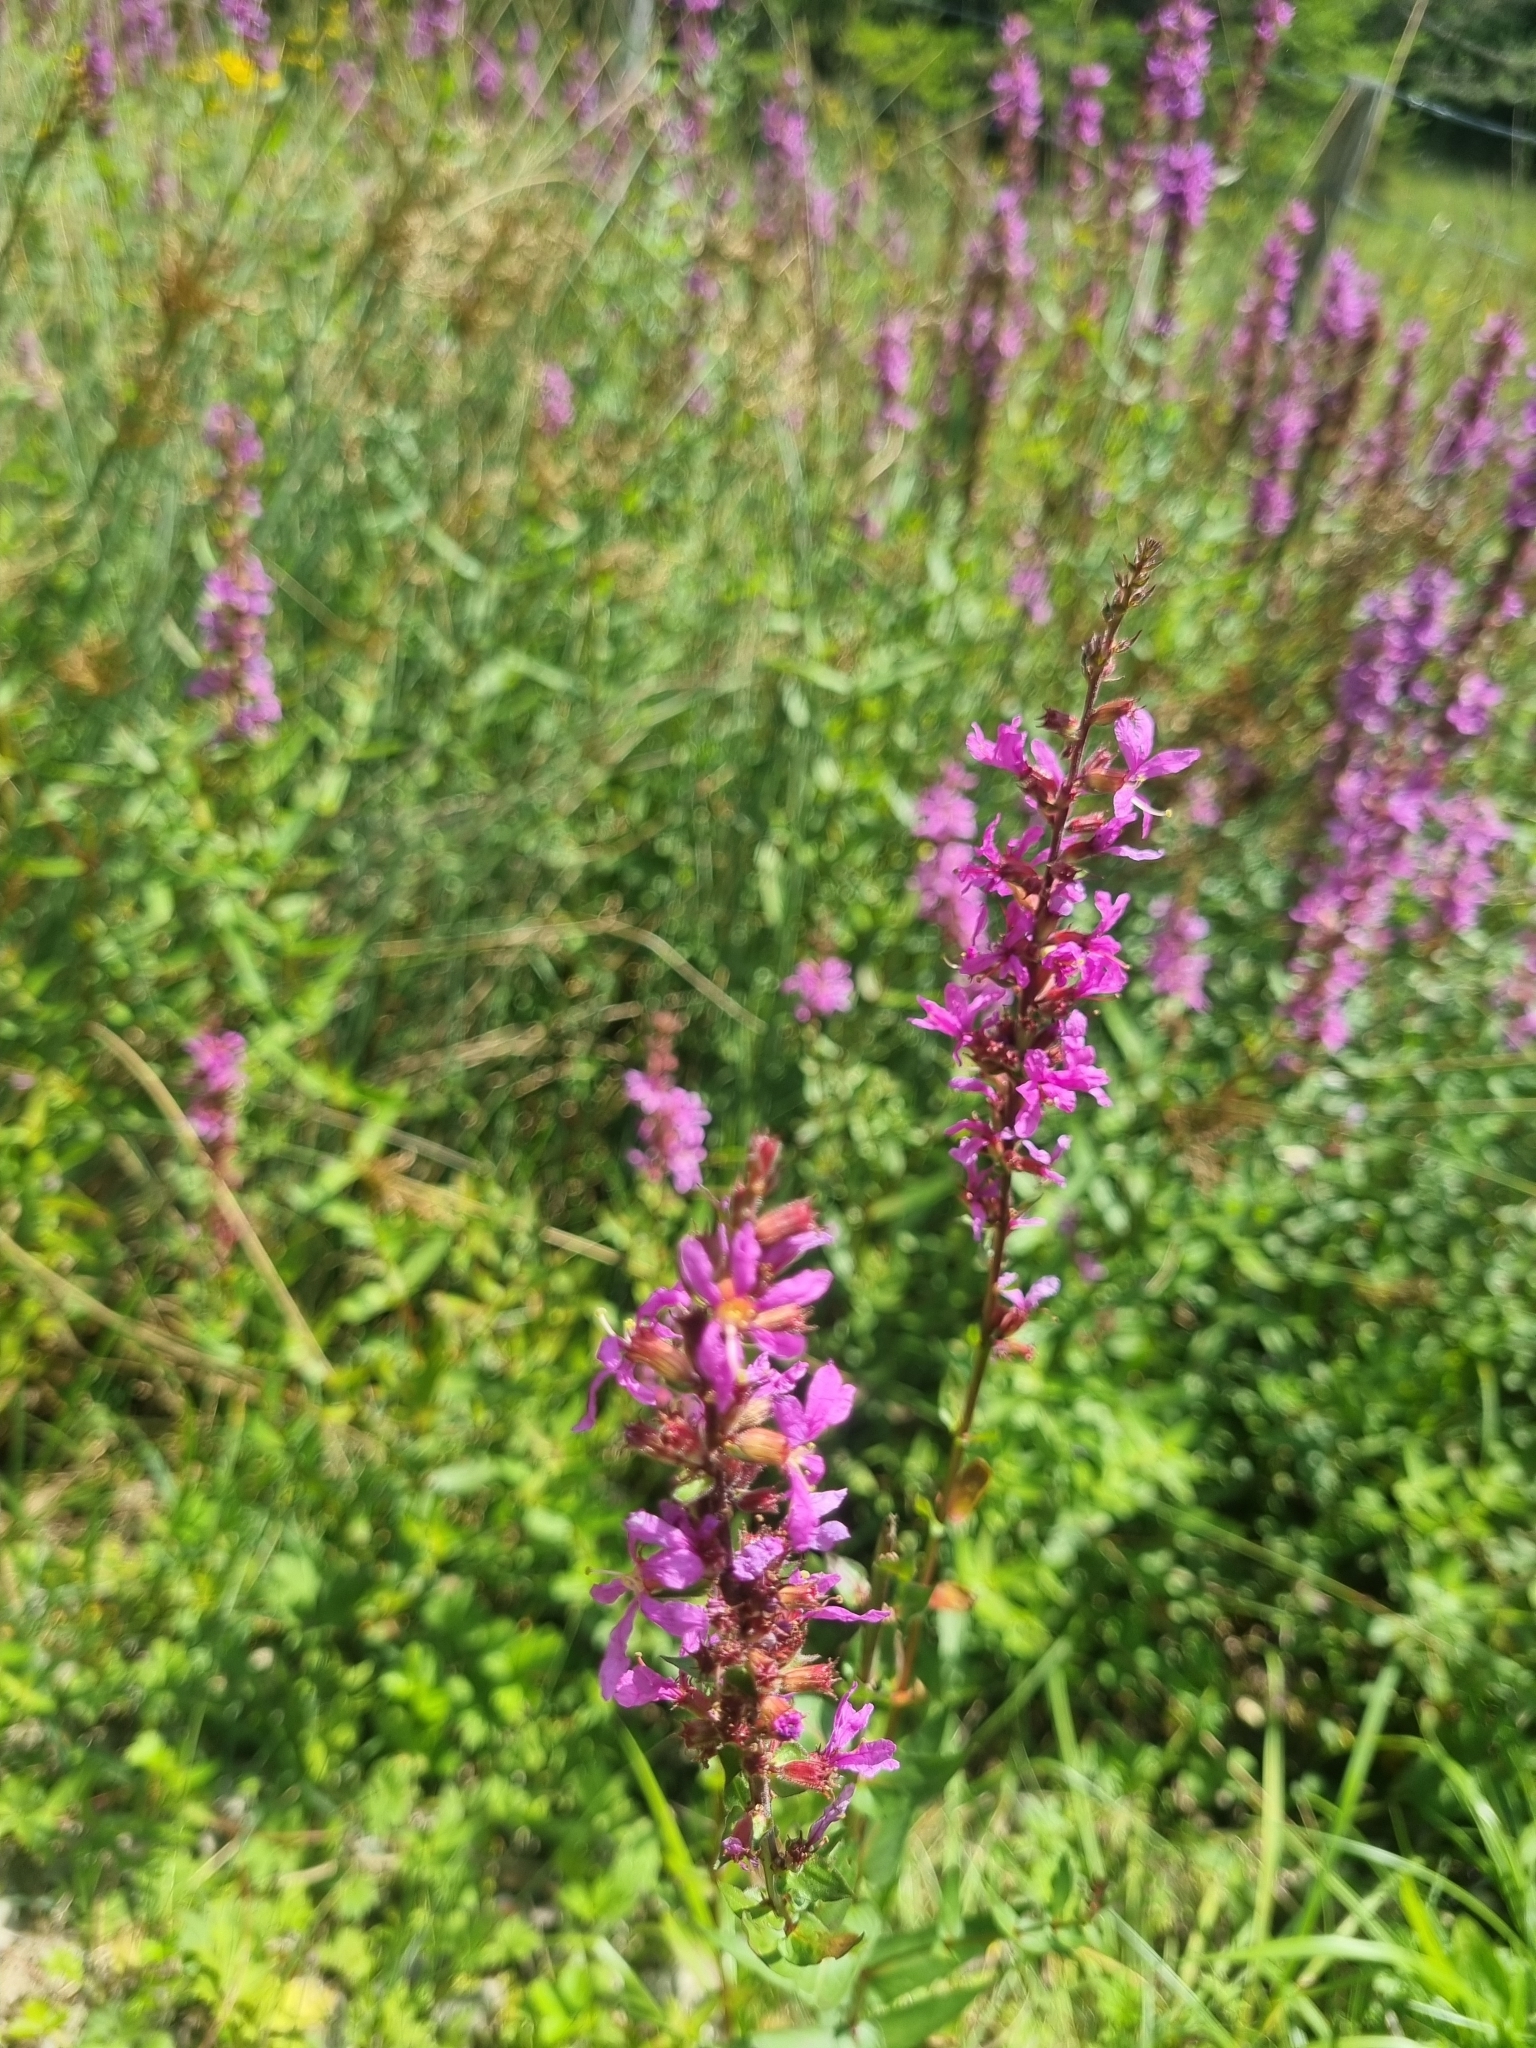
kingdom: Plantae
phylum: Tracheophyta
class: Magnoliopsida
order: Myrtales
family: Lythraceae
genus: Lythrum
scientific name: Lythrum salicaria
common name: Purple loosestrife
